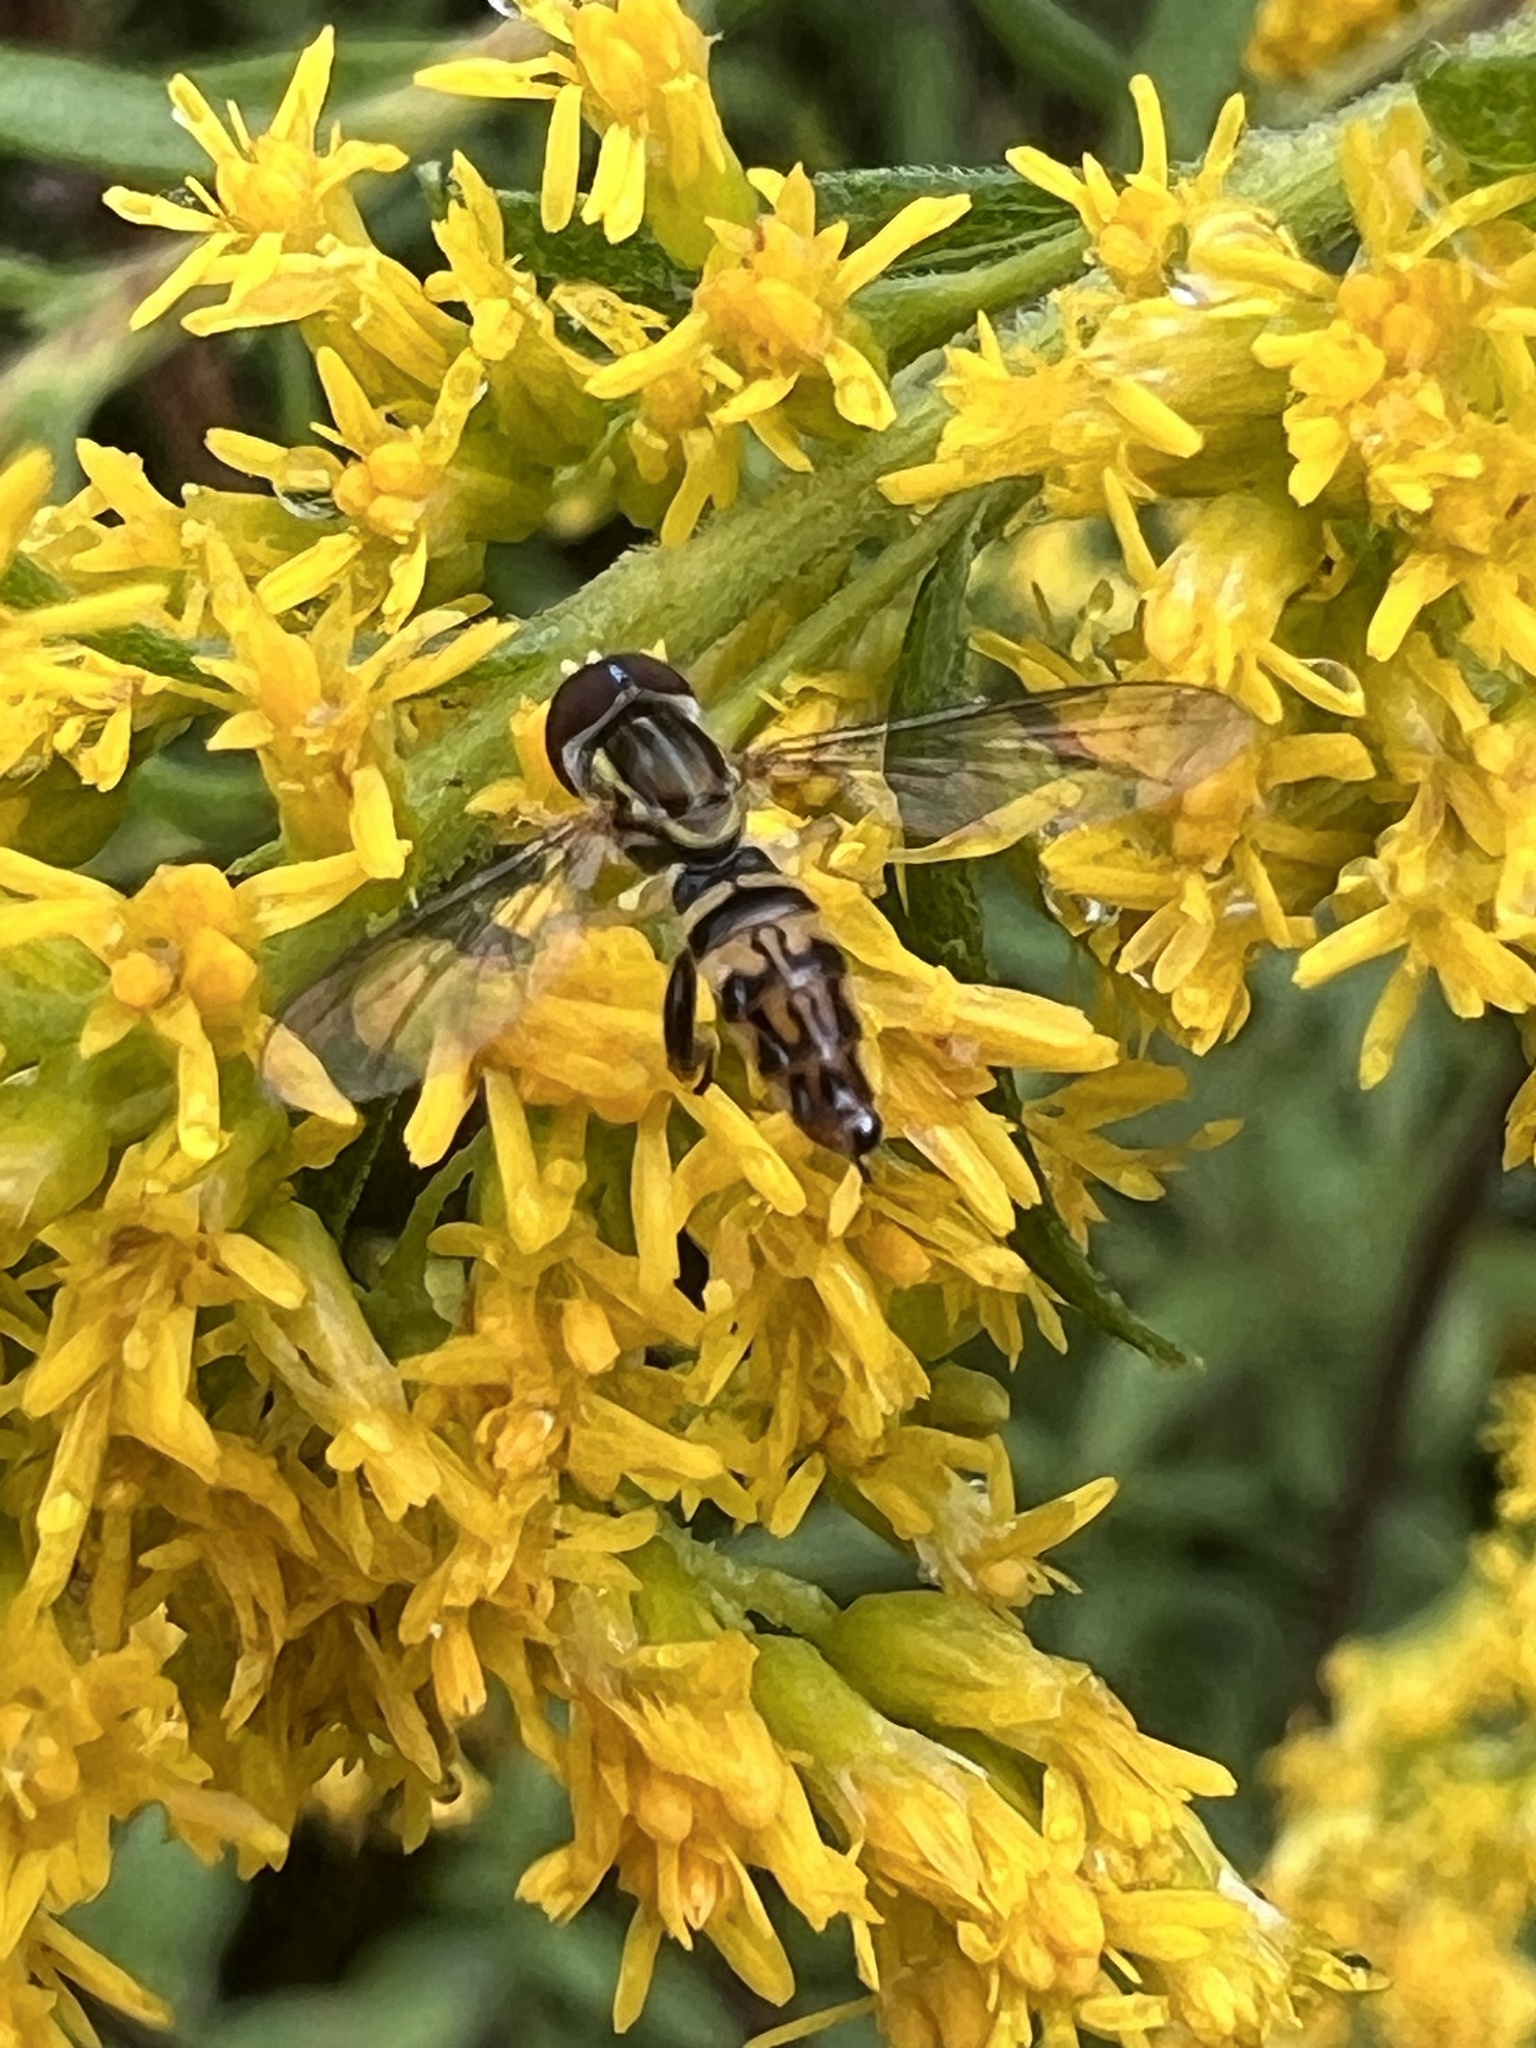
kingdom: Animalia
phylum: Arthropoda
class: Insecta
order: Diptera
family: Syrphidae
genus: Toxomerus
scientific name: Toxomerus geminatus
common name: Eastern calligrapher
